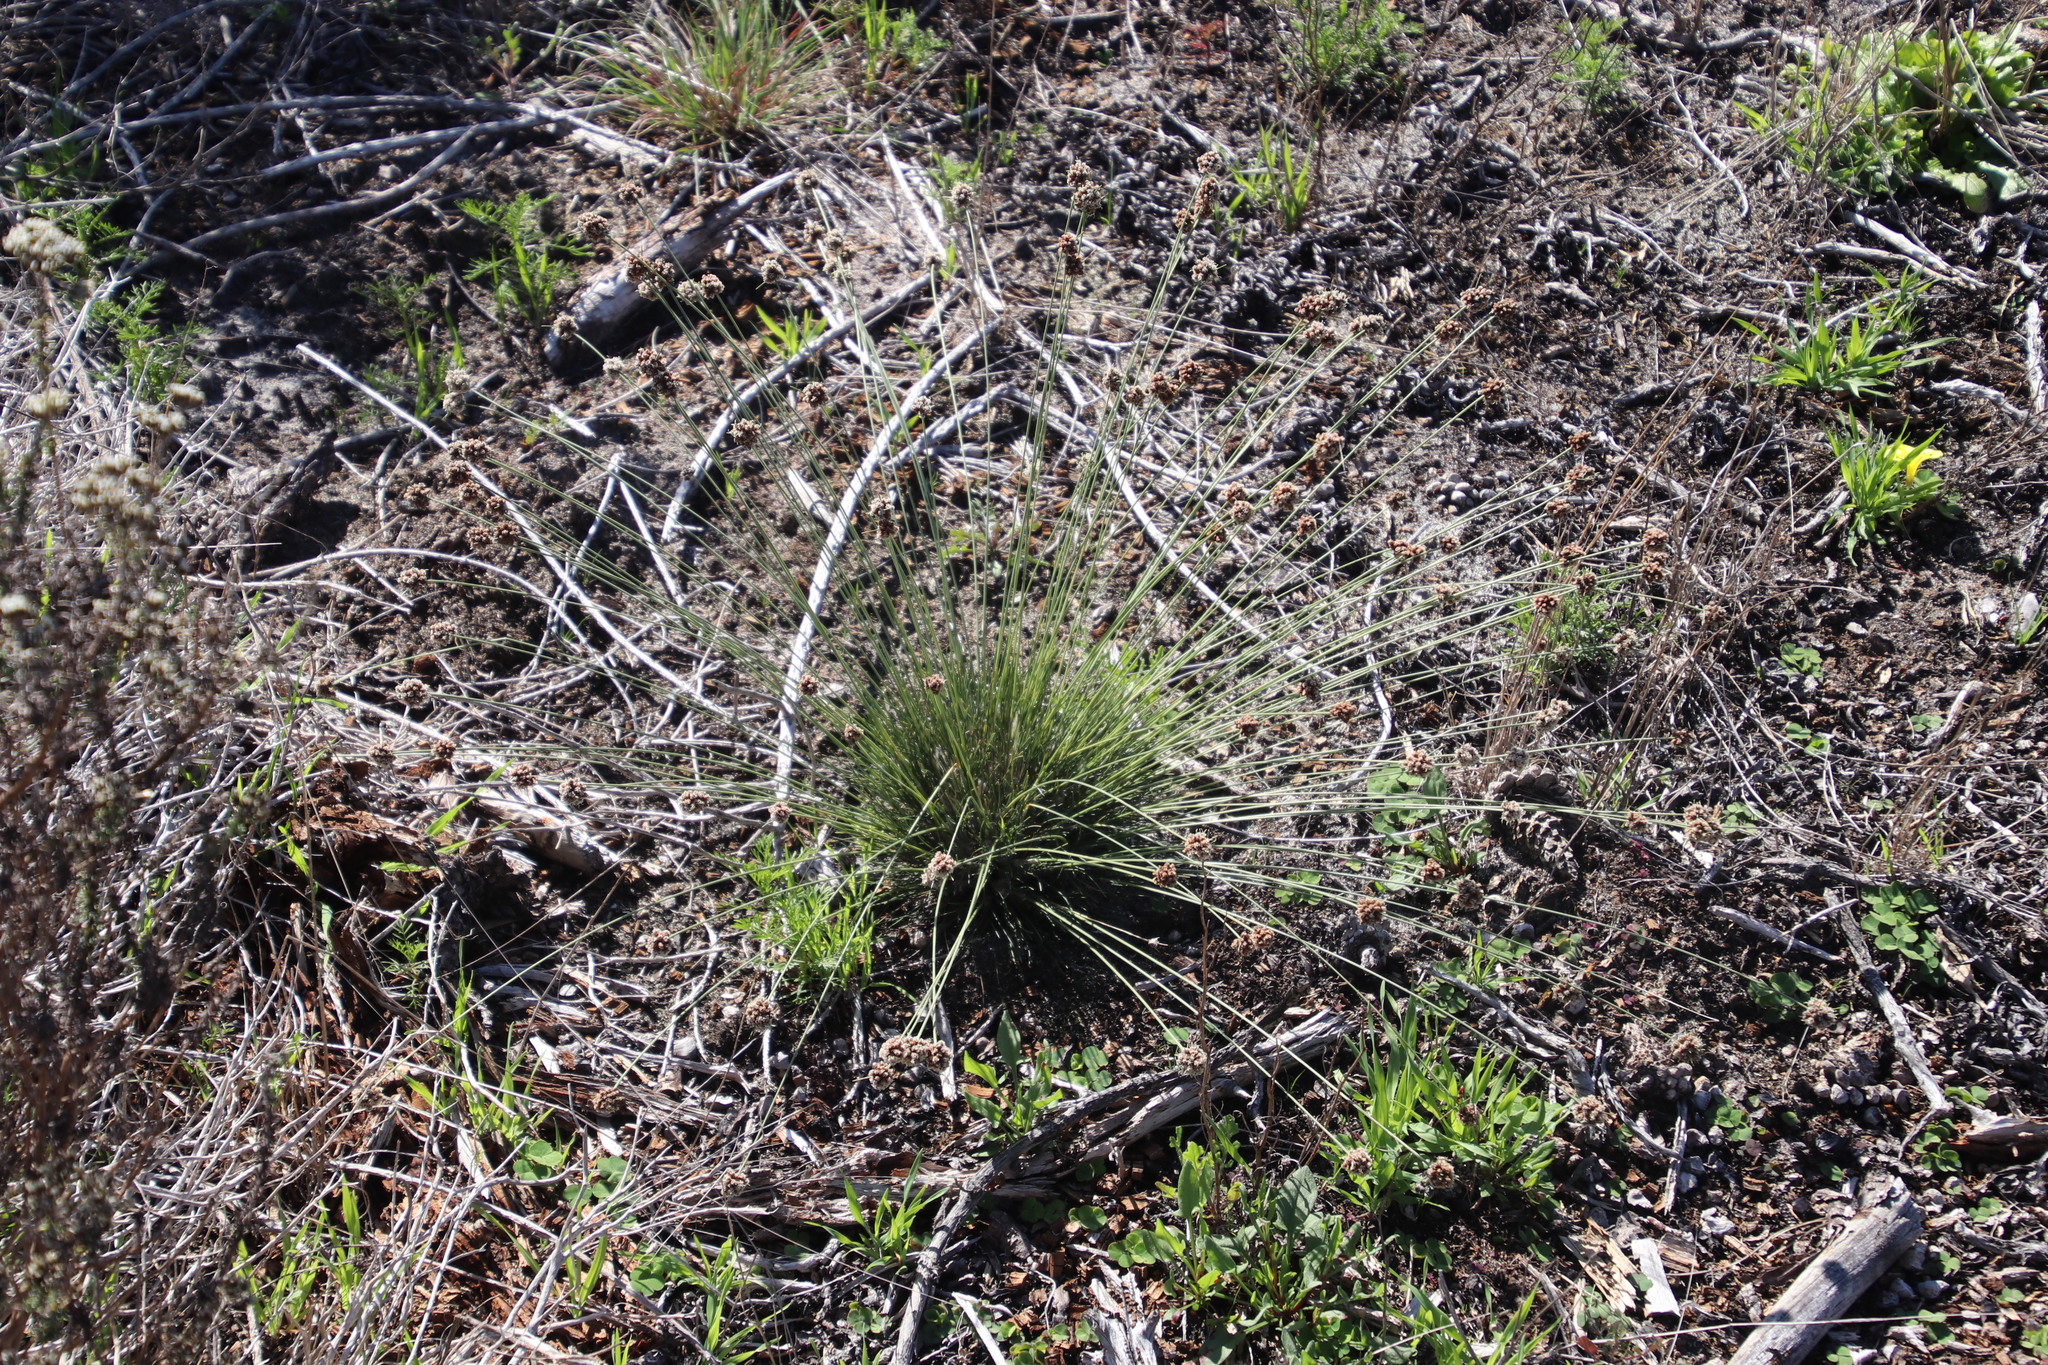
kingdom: Plantae
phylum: Tracheophyta
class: Liliopsida
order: Poales
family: Cyperaceae
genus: Ficinia
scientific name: Ficinia ecklonea
